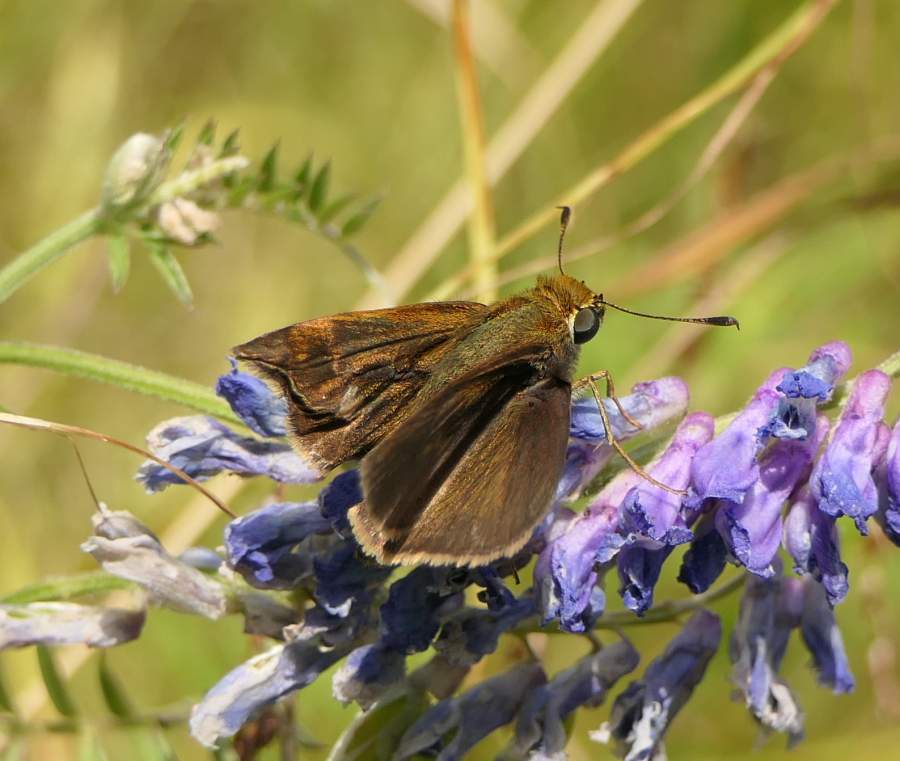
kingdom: Animalia
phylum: Arthropoda
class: Insecta
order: Lepidoptera
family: Hesperiidae
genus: Euphyes
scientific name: Euphyes vestris
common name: Dun skipper
